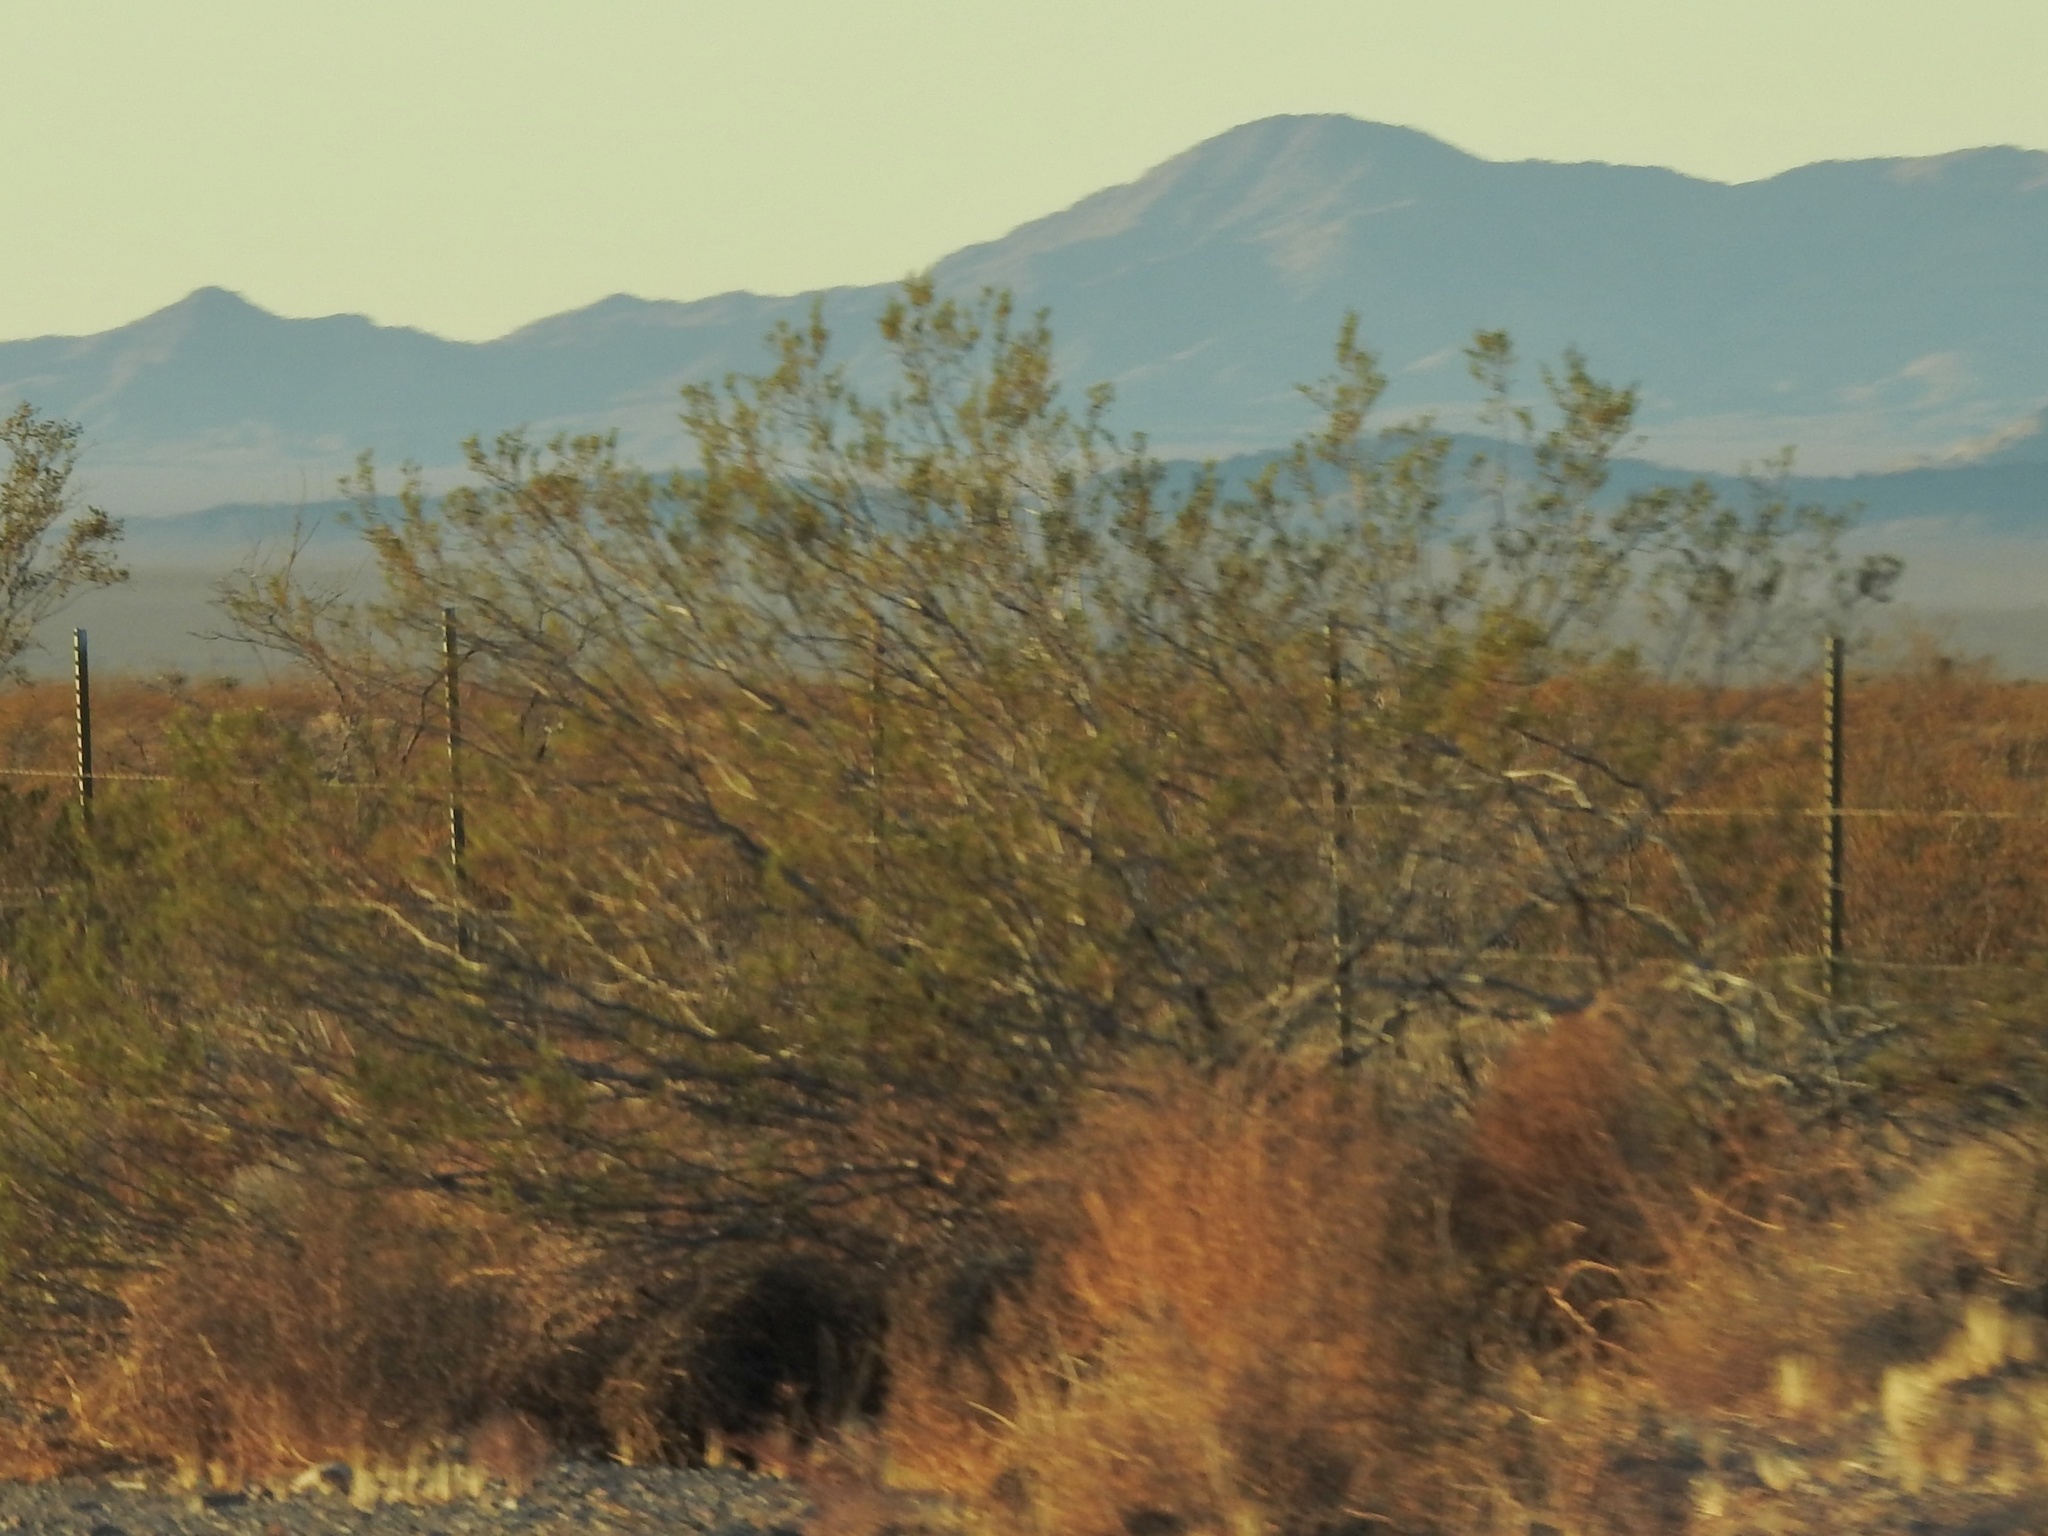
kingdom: Plantae
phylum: Tracheophyta
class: Magnoliopsida
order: Zygophyllales
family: Zygophyllaceae
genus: Larrea
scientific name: Larrea tridentata
